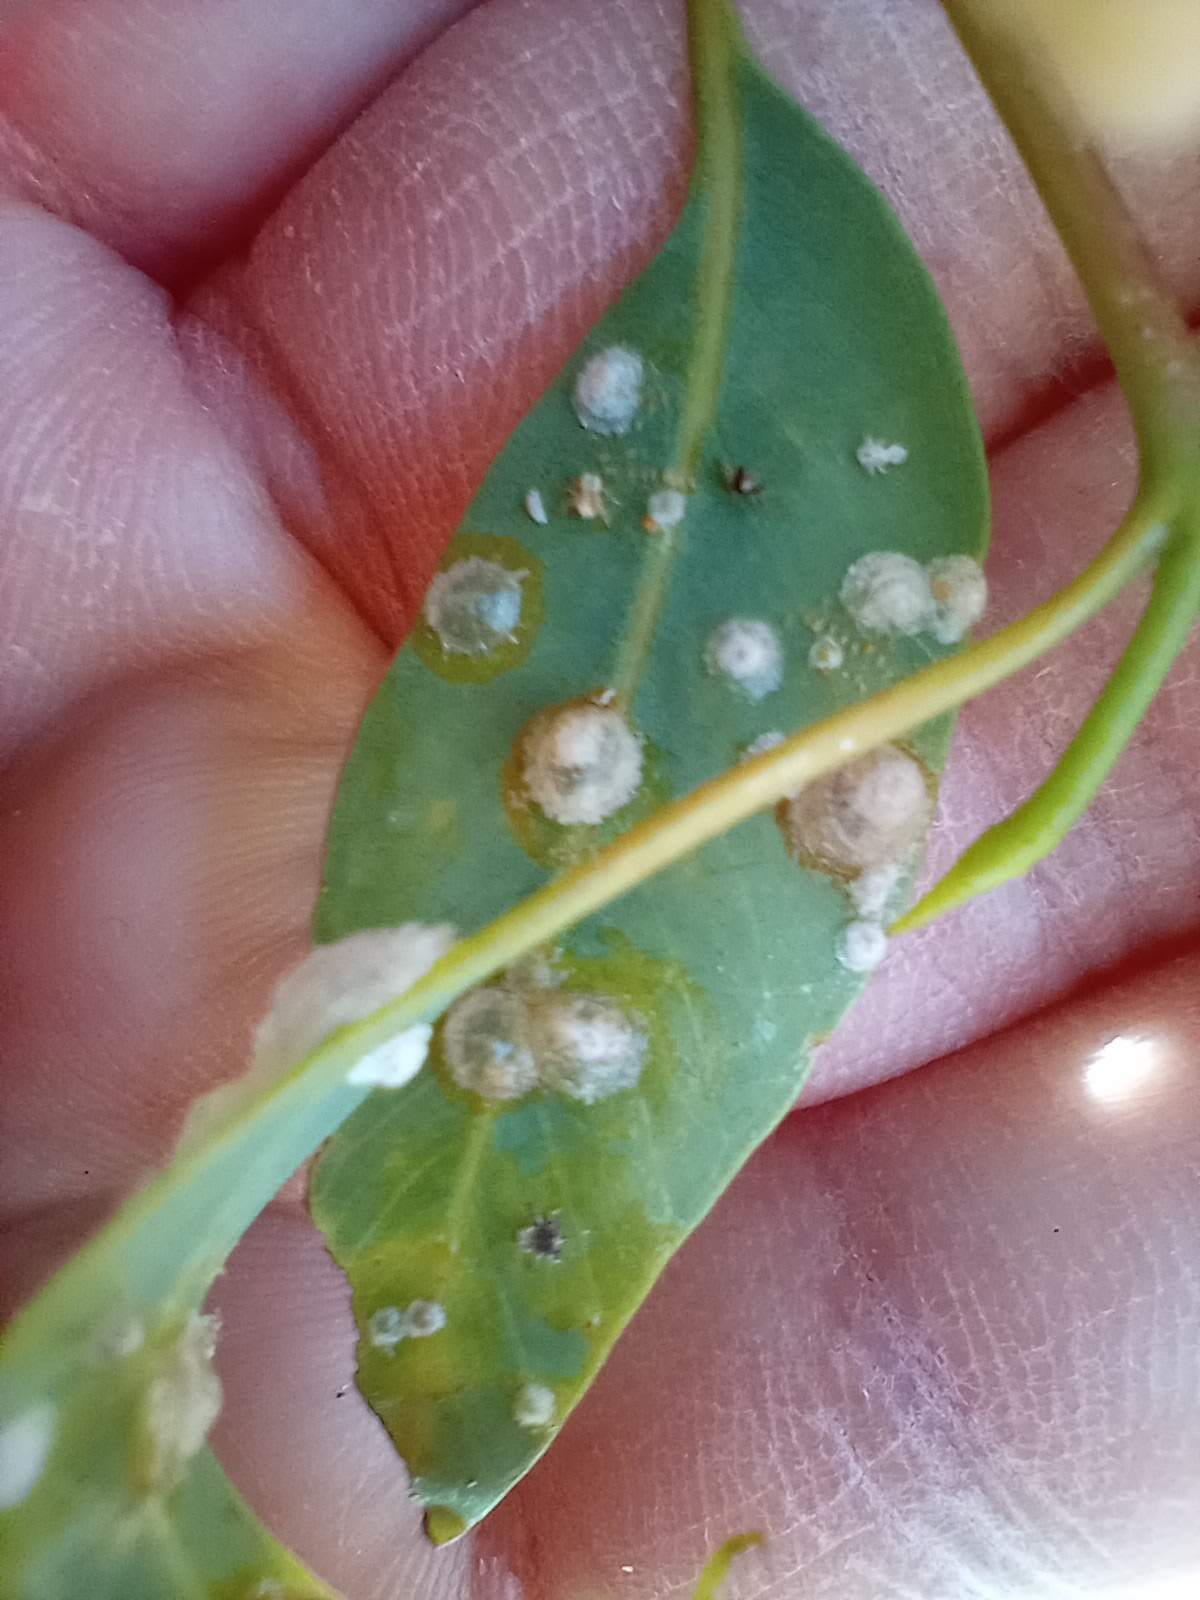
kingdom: Animalia
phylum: Arthropoda
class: Insecta
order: Hemiptera
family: Aphalaridae
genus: Glycaspis
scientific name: Glycaspis brimblecombei
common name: Red gum lerp psyllid
